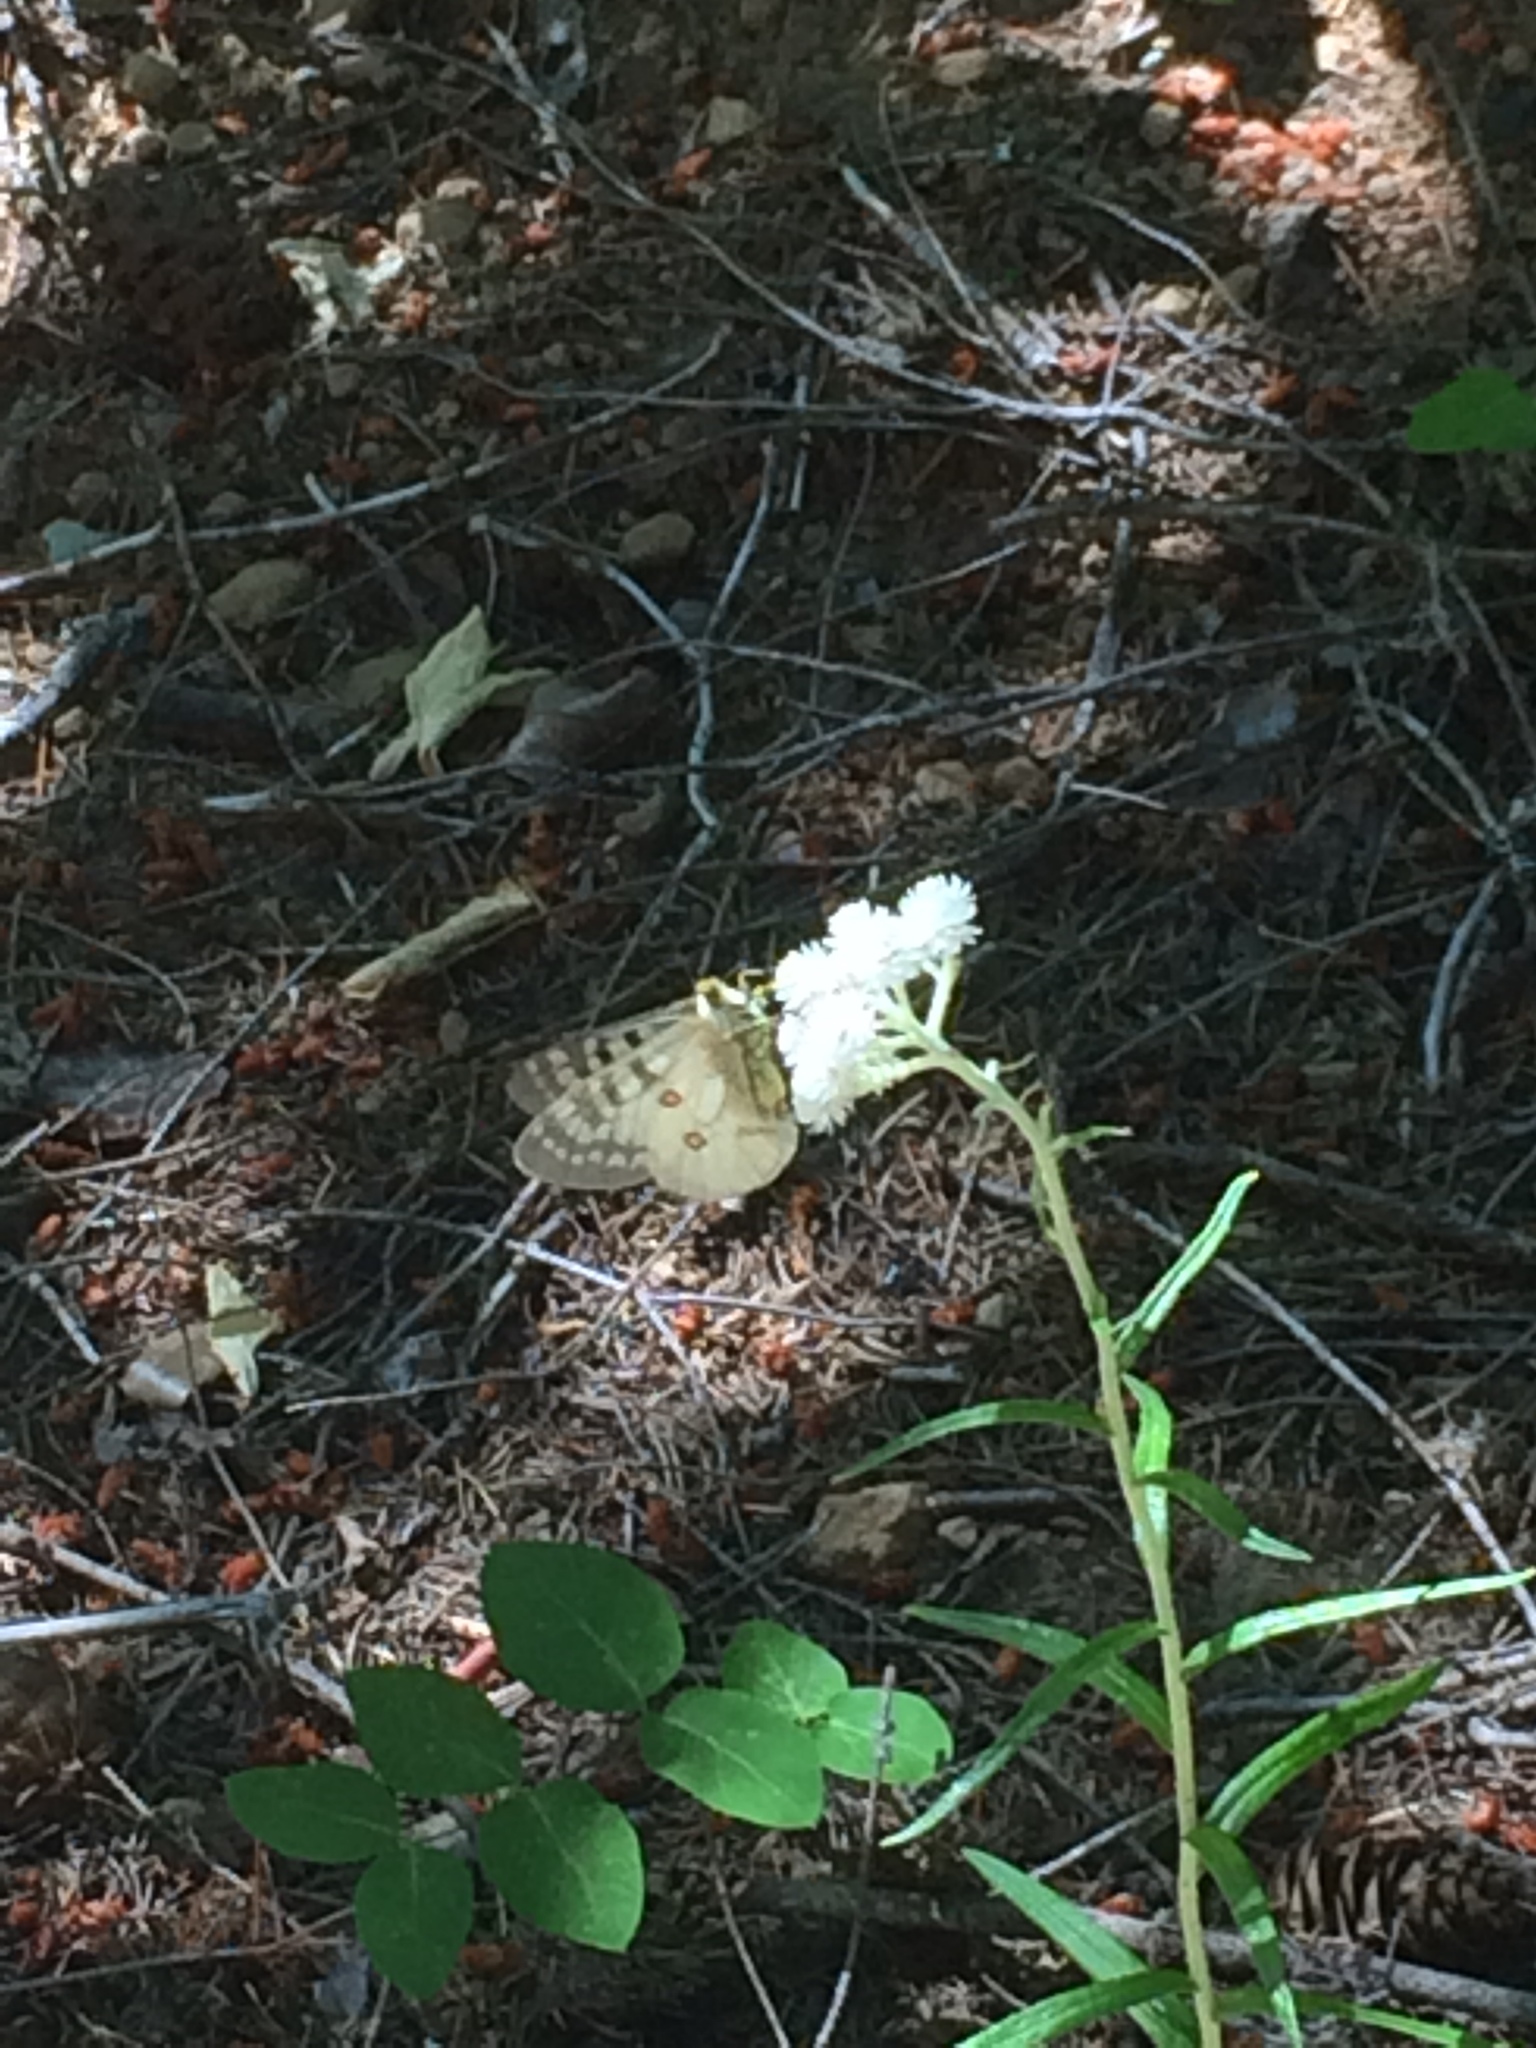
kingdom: Animalia
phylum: Arthropoda
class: Insecta
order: Lepidoptera
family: Papilionidae
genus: Parnassius
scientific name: Parnassius clodius
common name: American apollo
